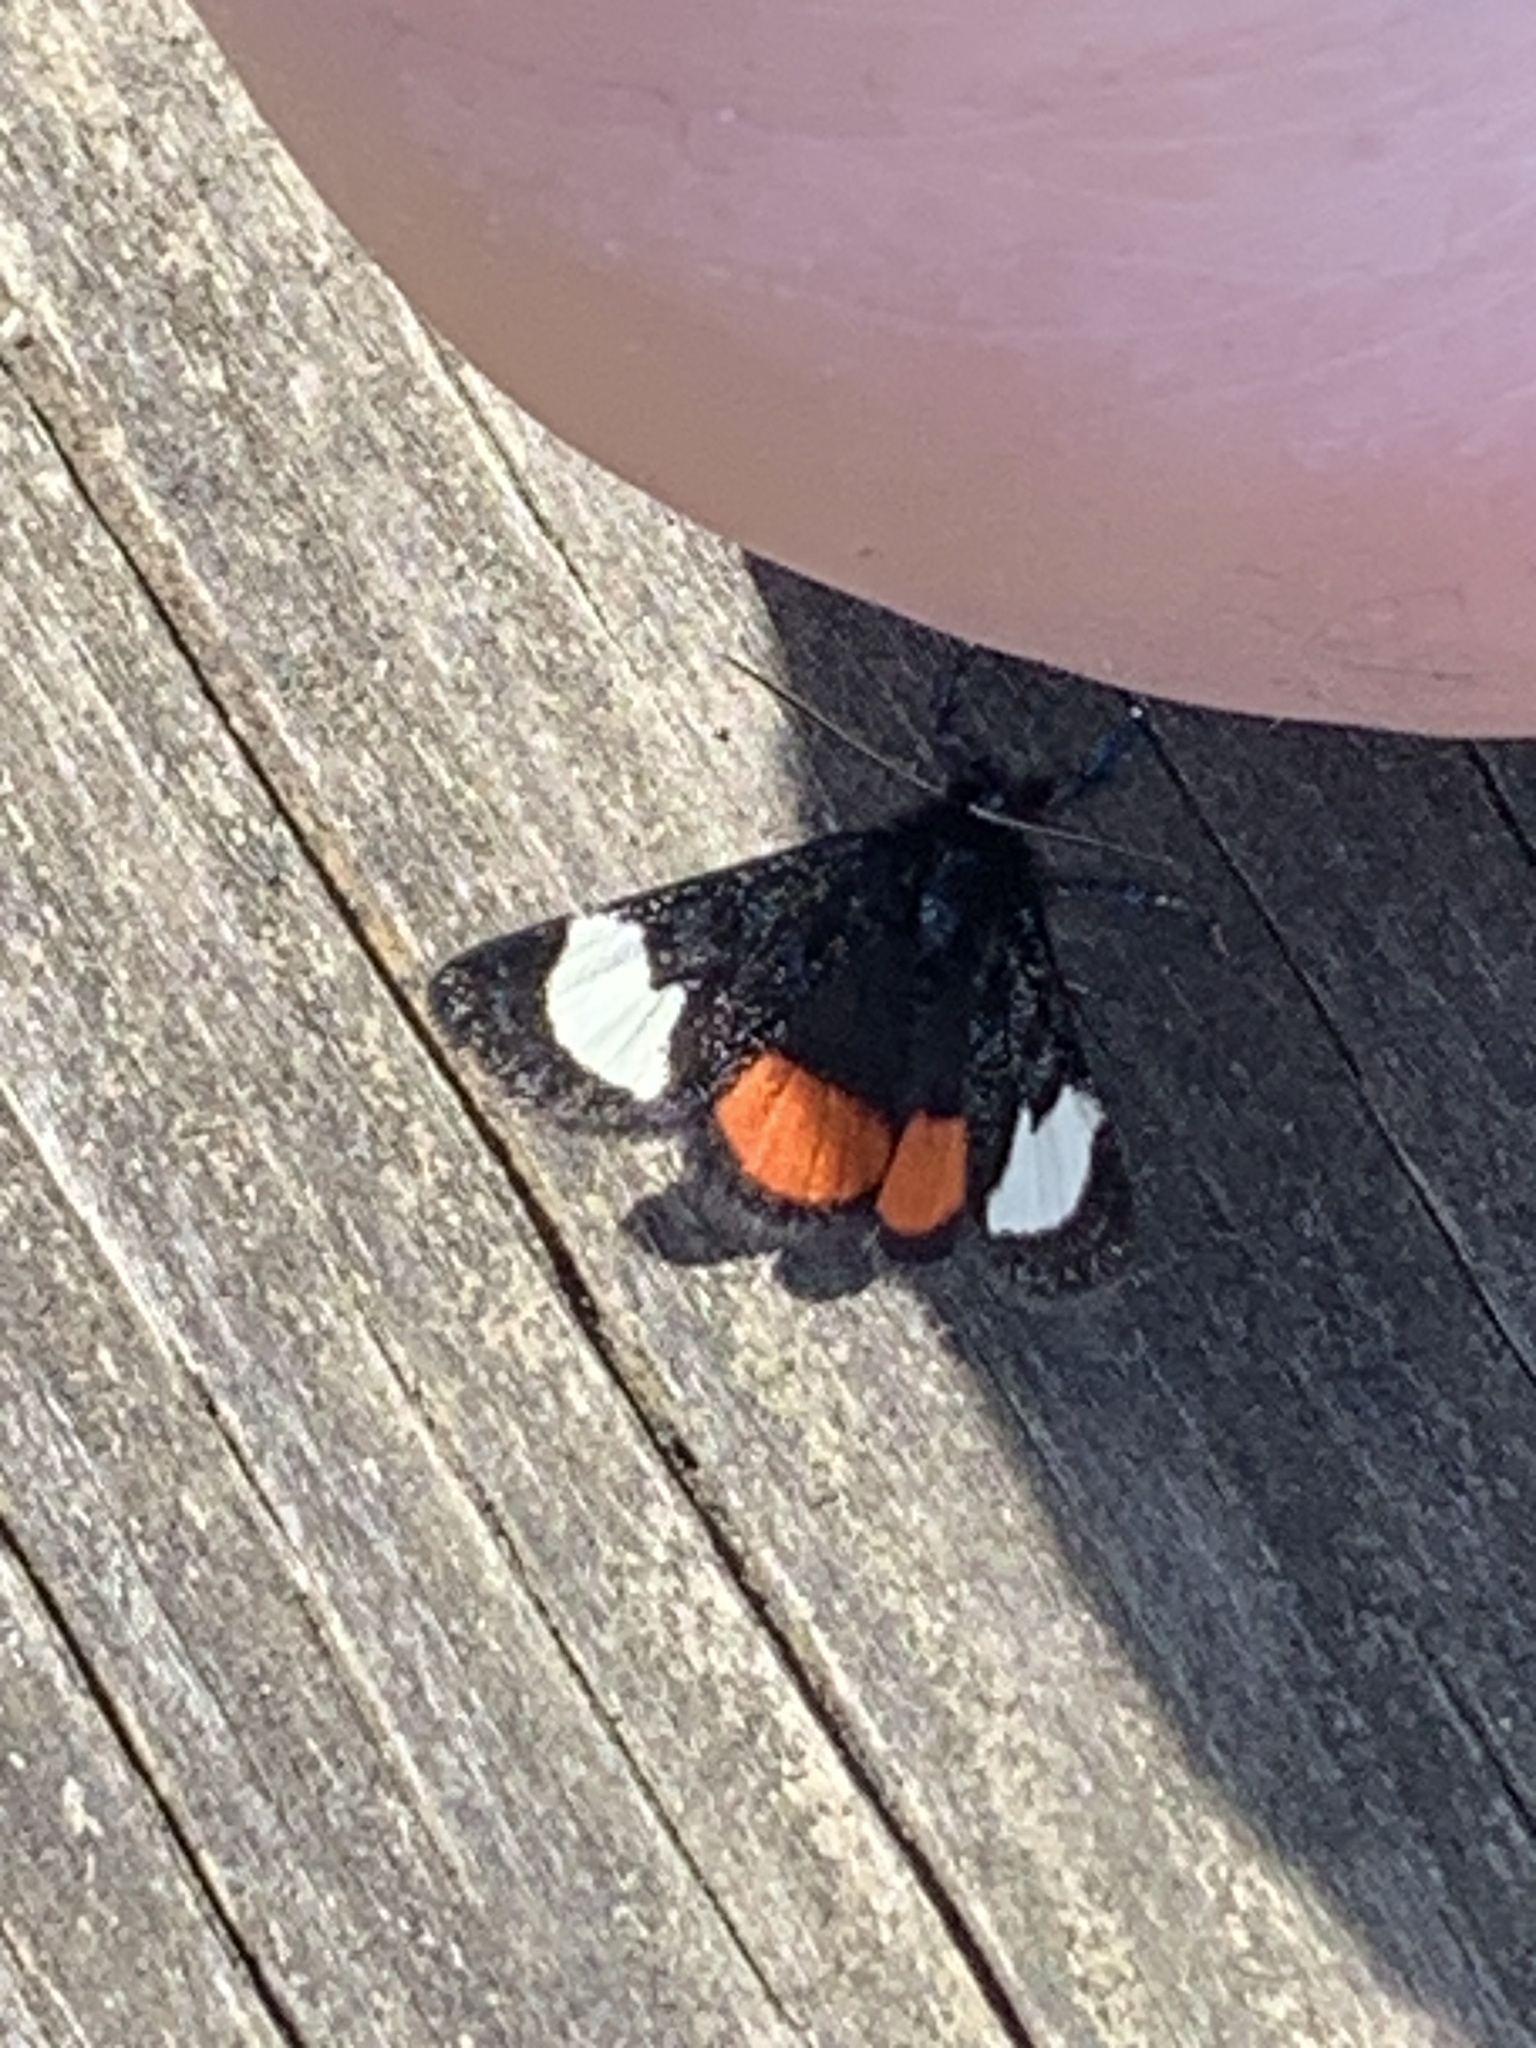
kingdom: Animalia
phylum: Arthropoda
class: Insecta
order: Lepidoptera
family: Noctuidae
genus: Psychomorpha
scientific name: Psychomorpha epimenis
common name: Grapevine epimenis moth
